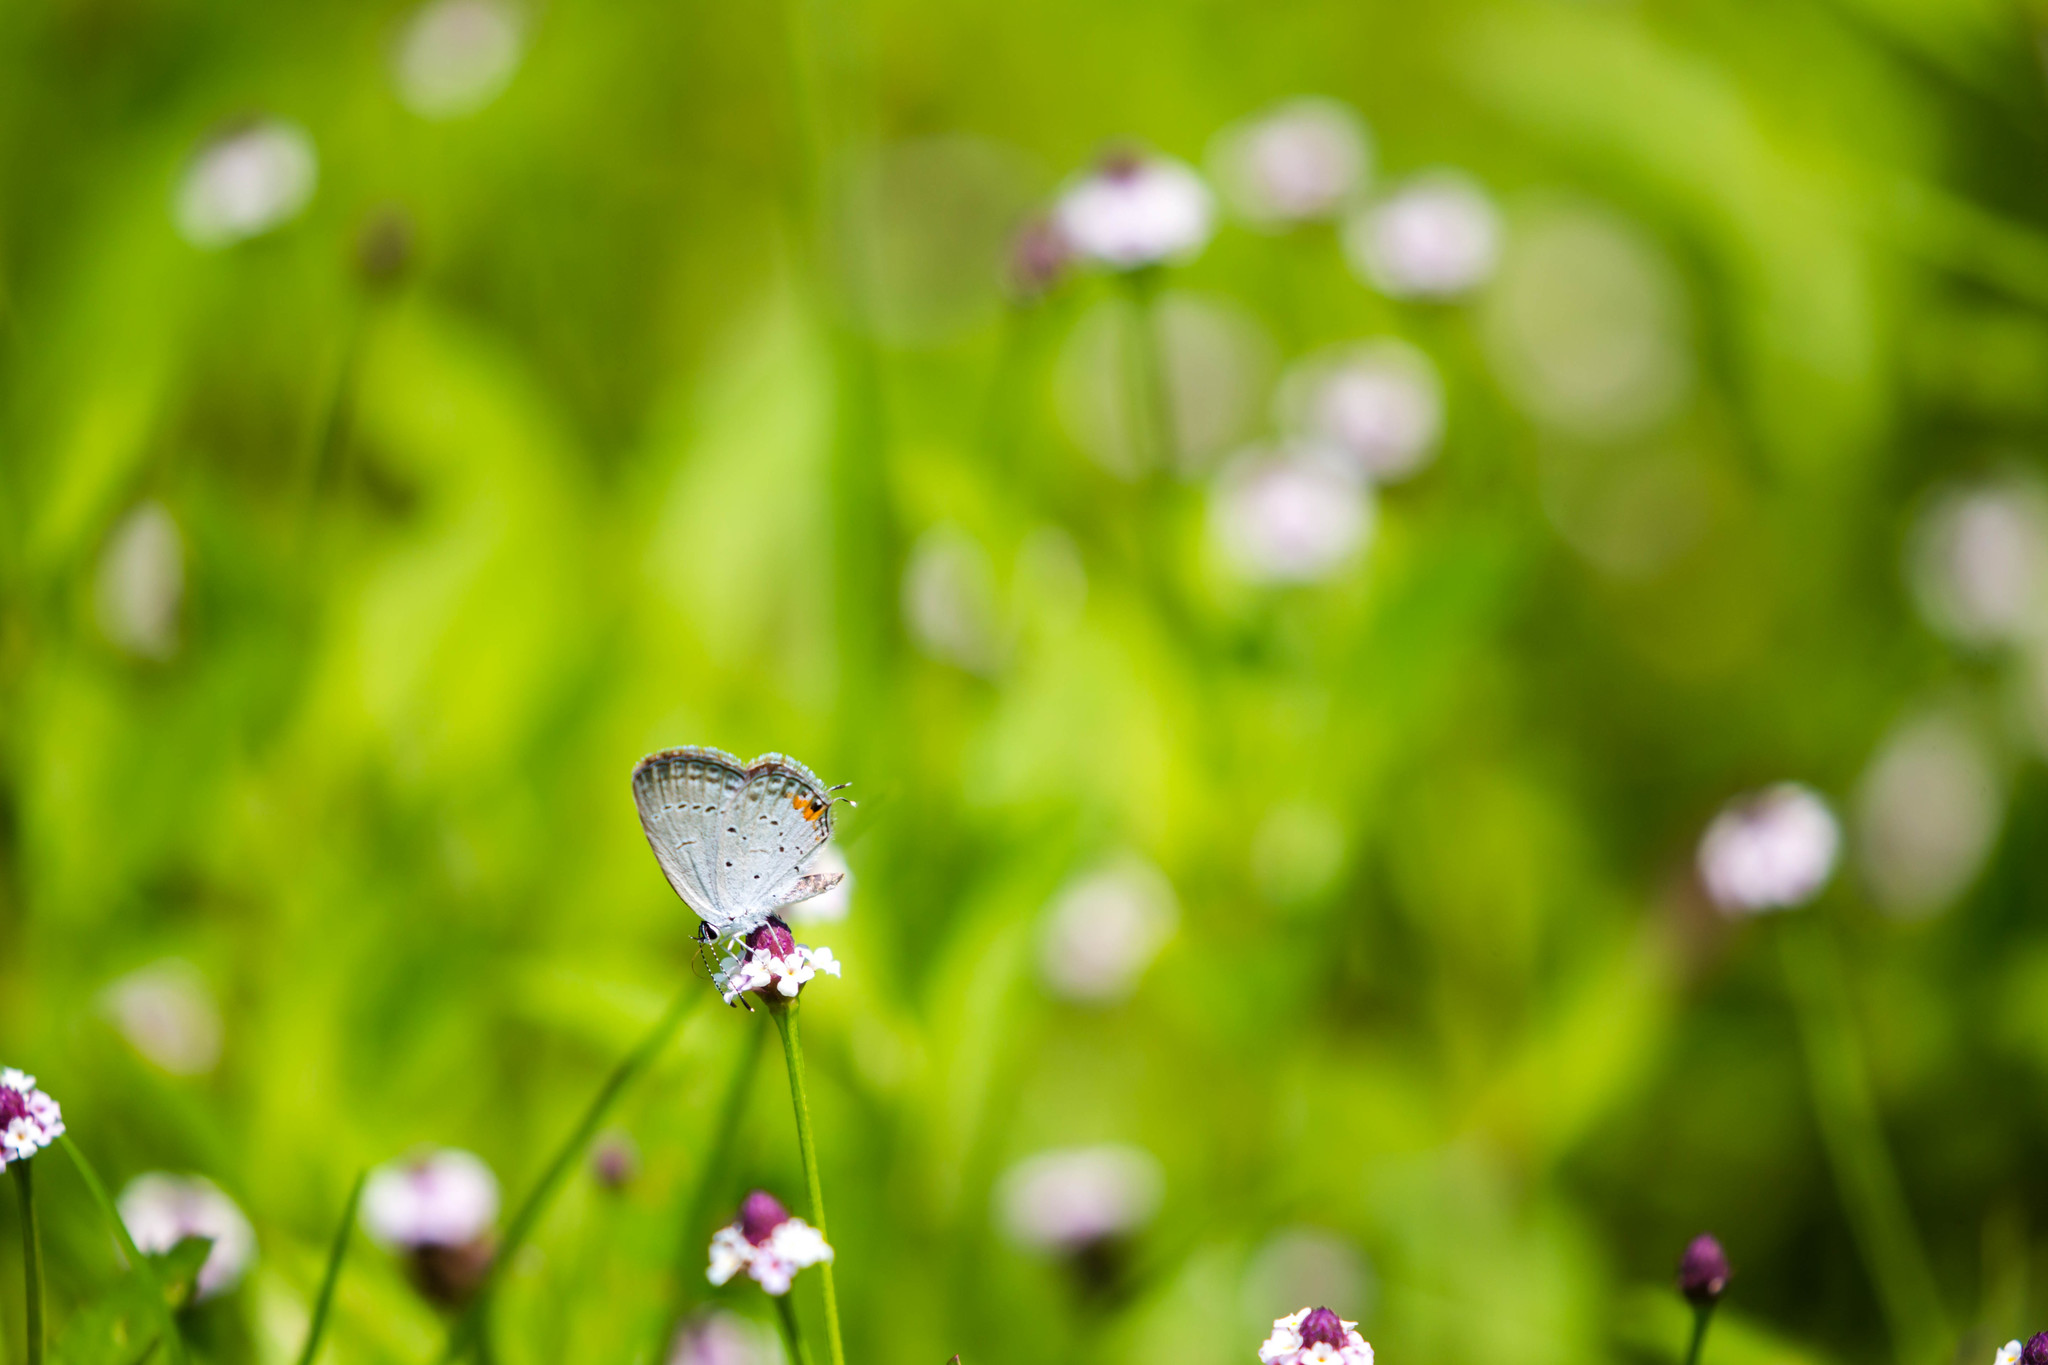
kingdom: Animalia
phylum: Arthropoda
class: Insecta
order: Lepidoptera
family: Lycaenidae
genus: Elkalyce
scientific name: Elkalyce comyntas
